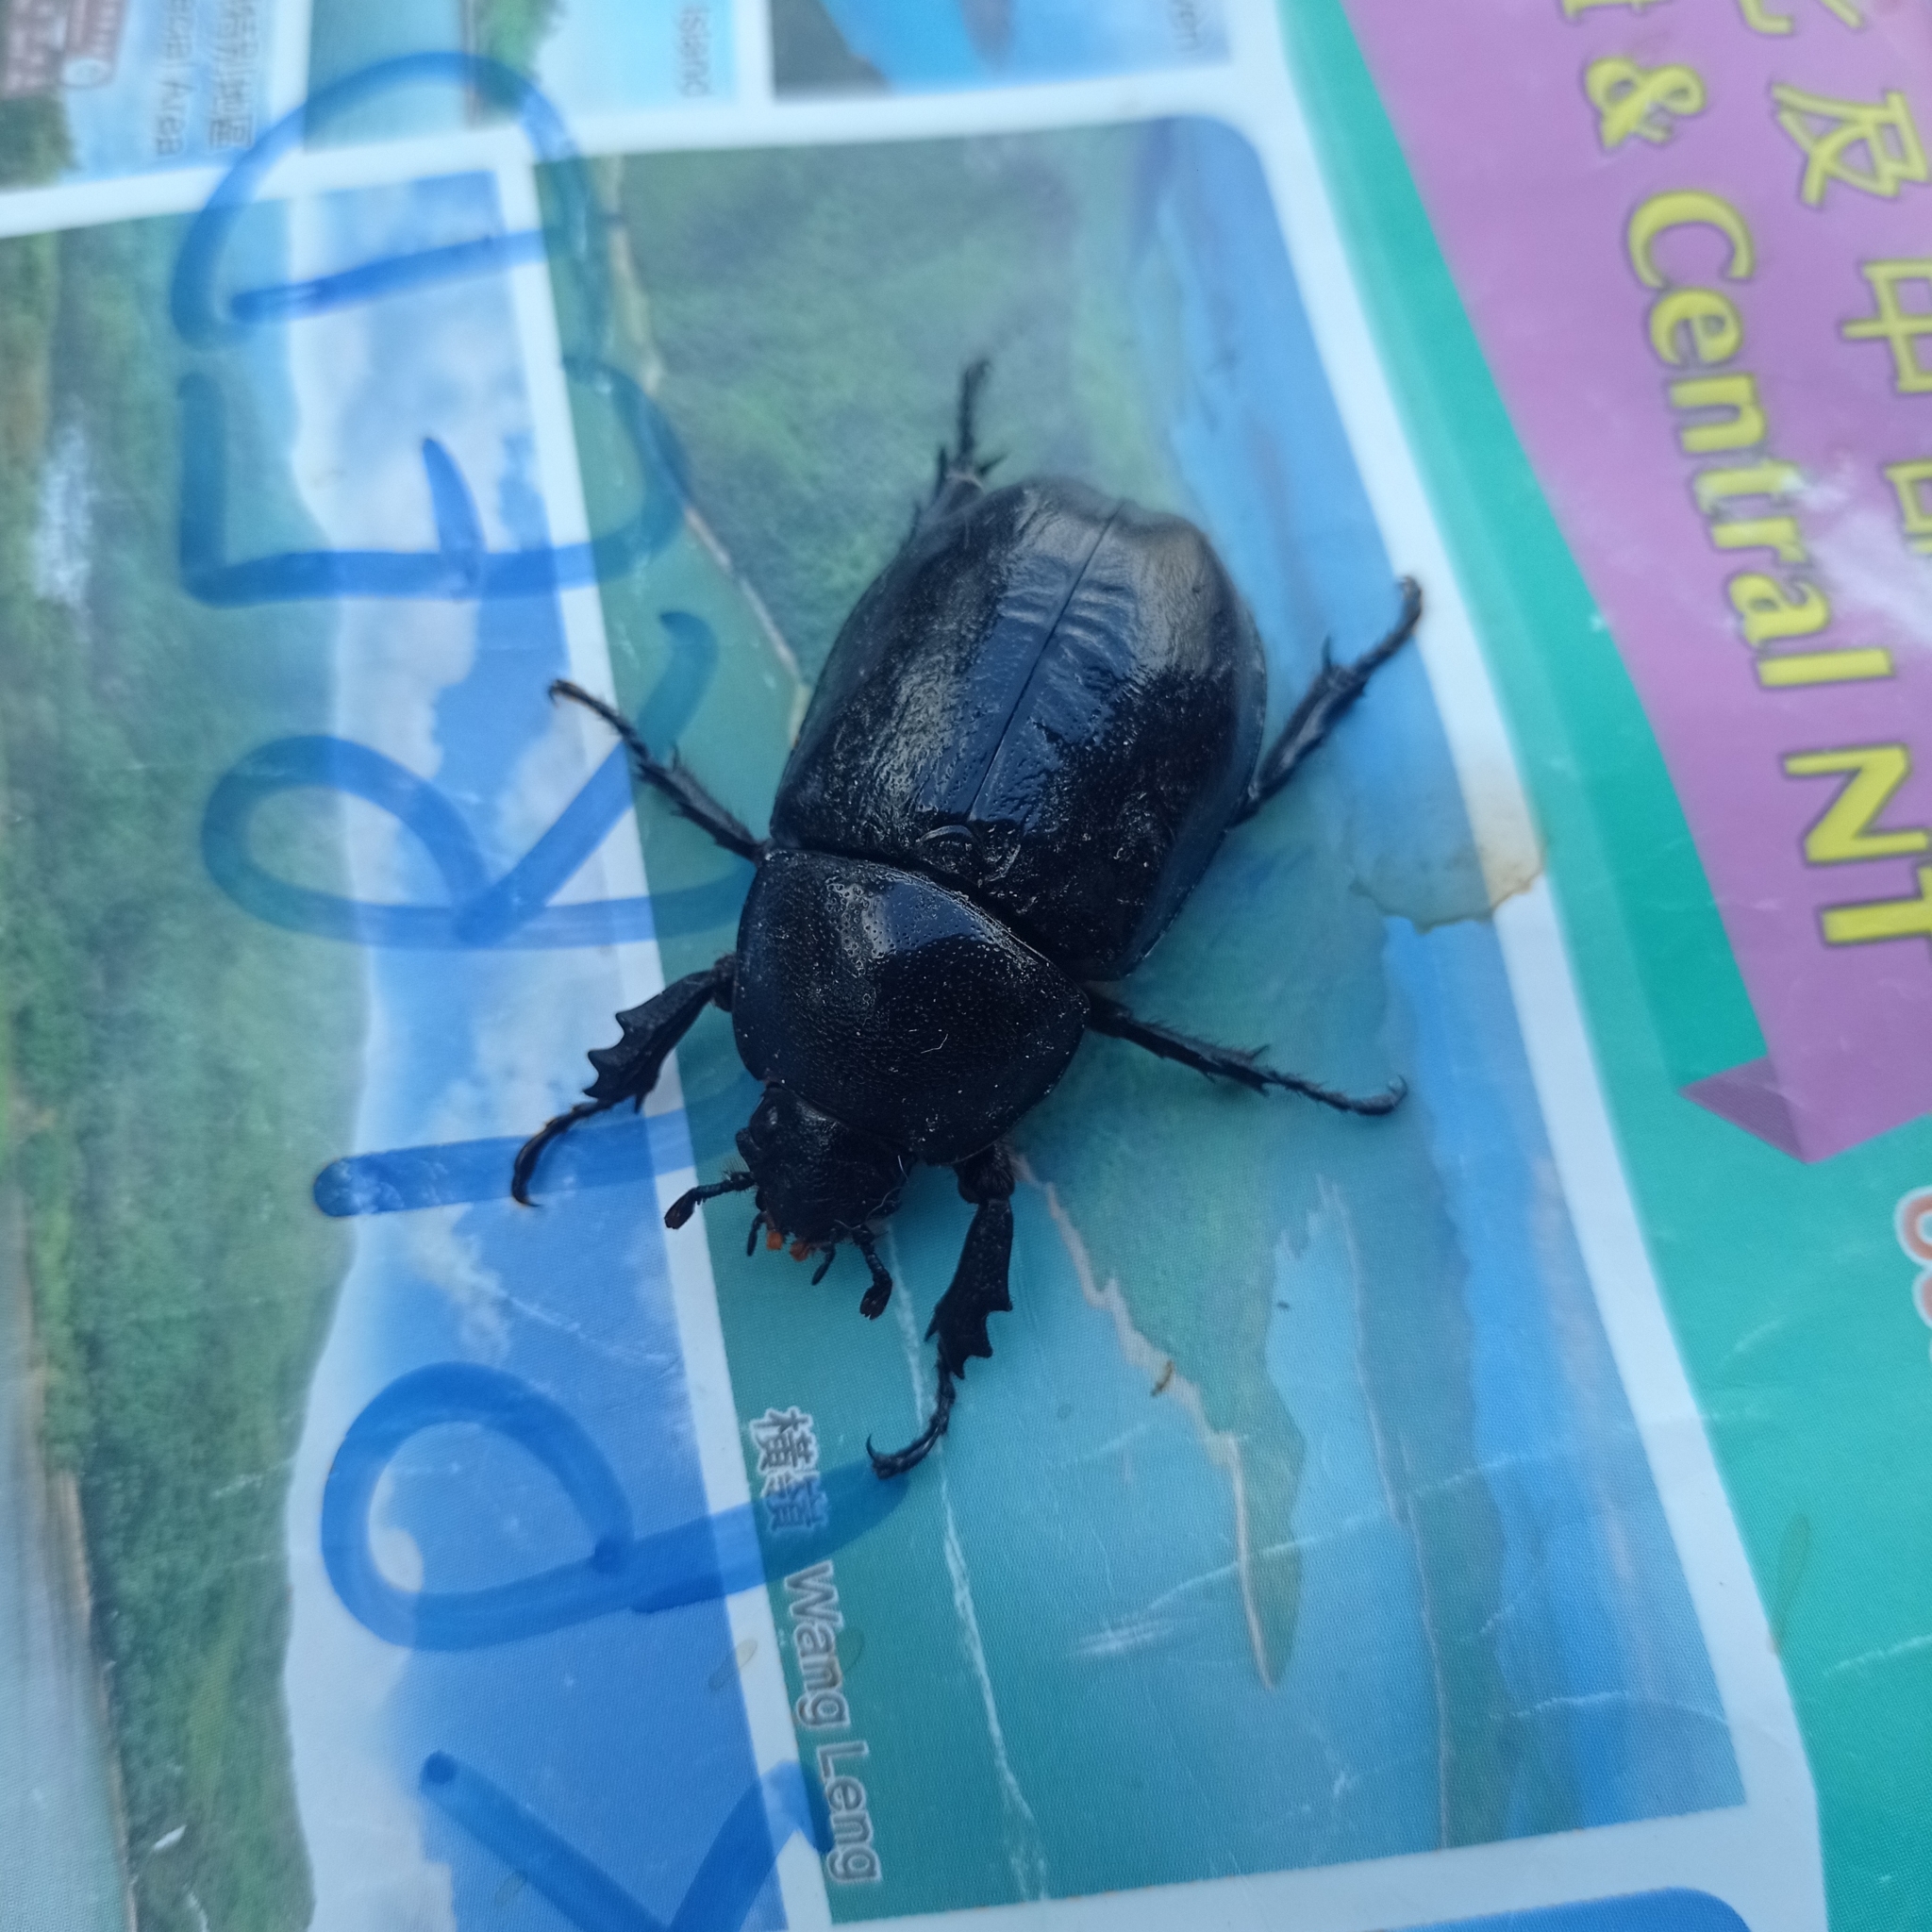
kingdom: Animalia
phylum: Arthropoda
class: Insecta
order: Coleoptera
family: Scarabaeidae
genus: Xylotrupes
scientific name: Xylotrupes socrates
